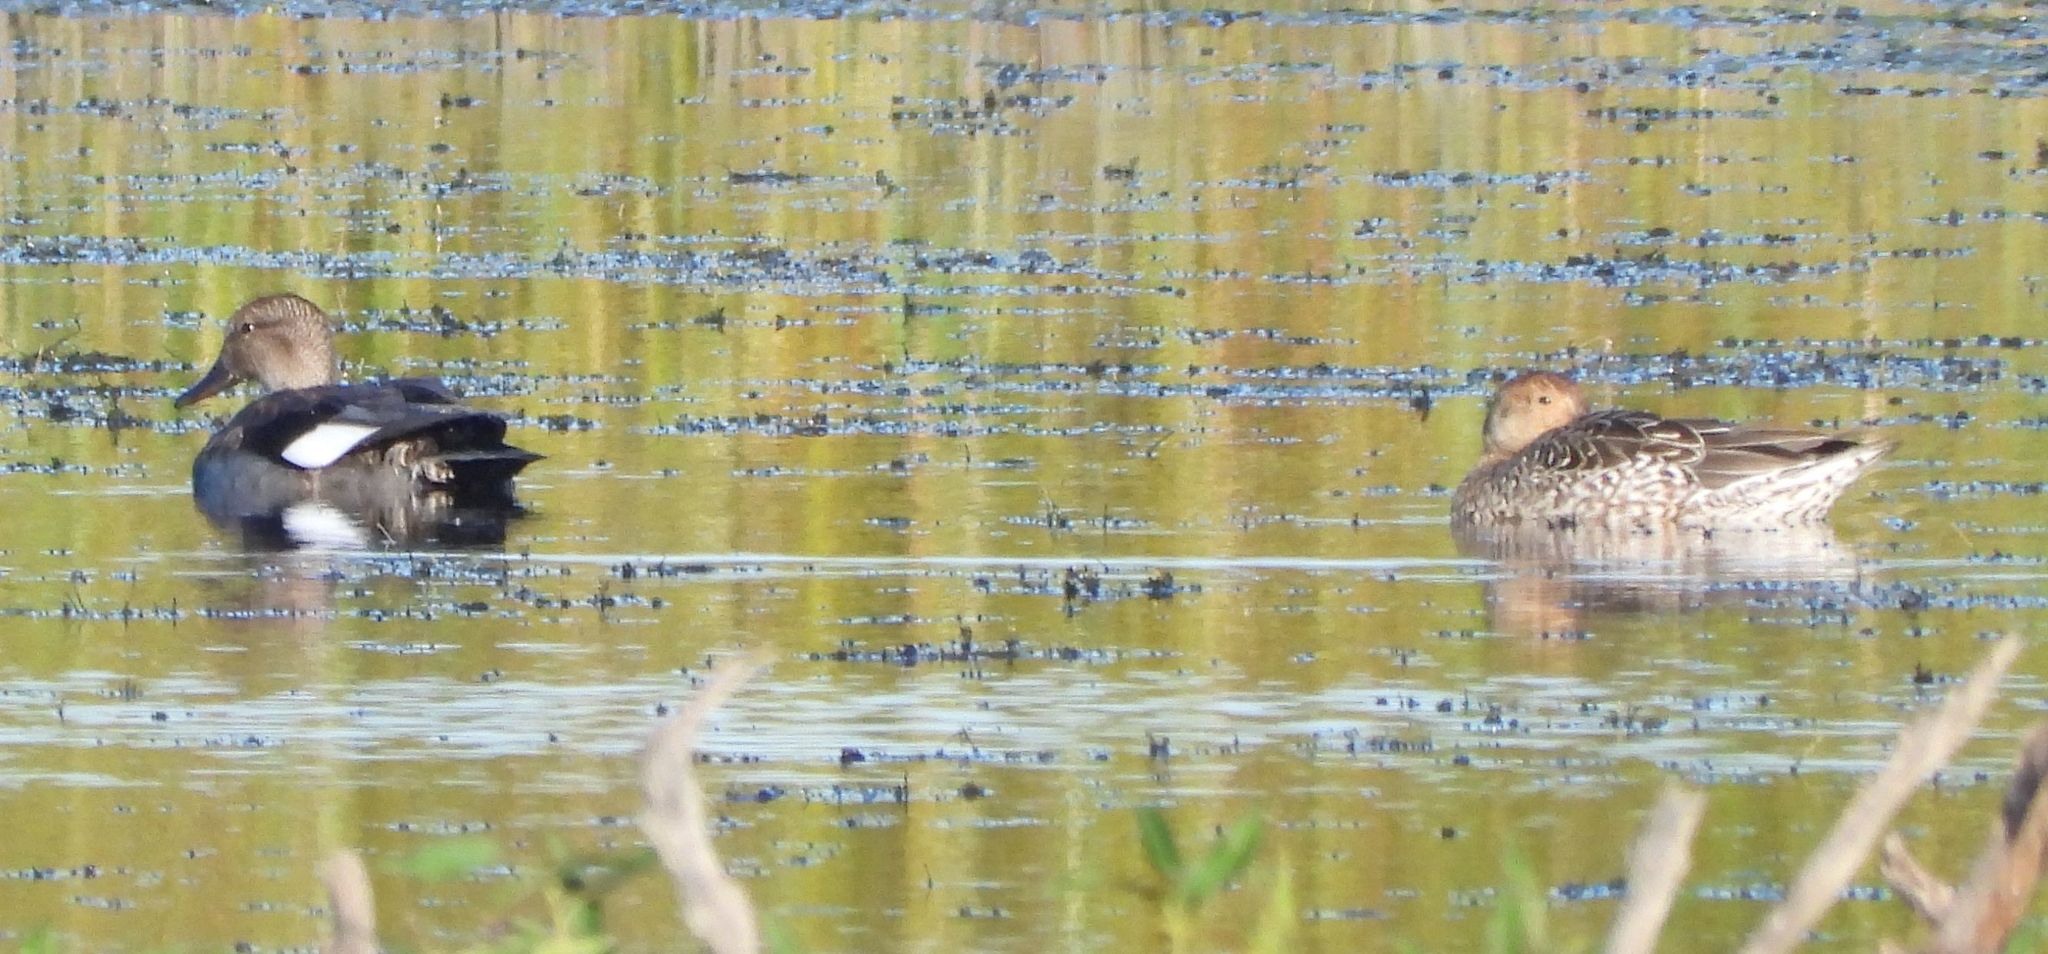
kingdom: Animalia
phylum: Chordata
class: Aves
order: Anseriformes
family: Anatidae
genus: Mareca
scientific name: Mareca strepera
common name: Gadwall
